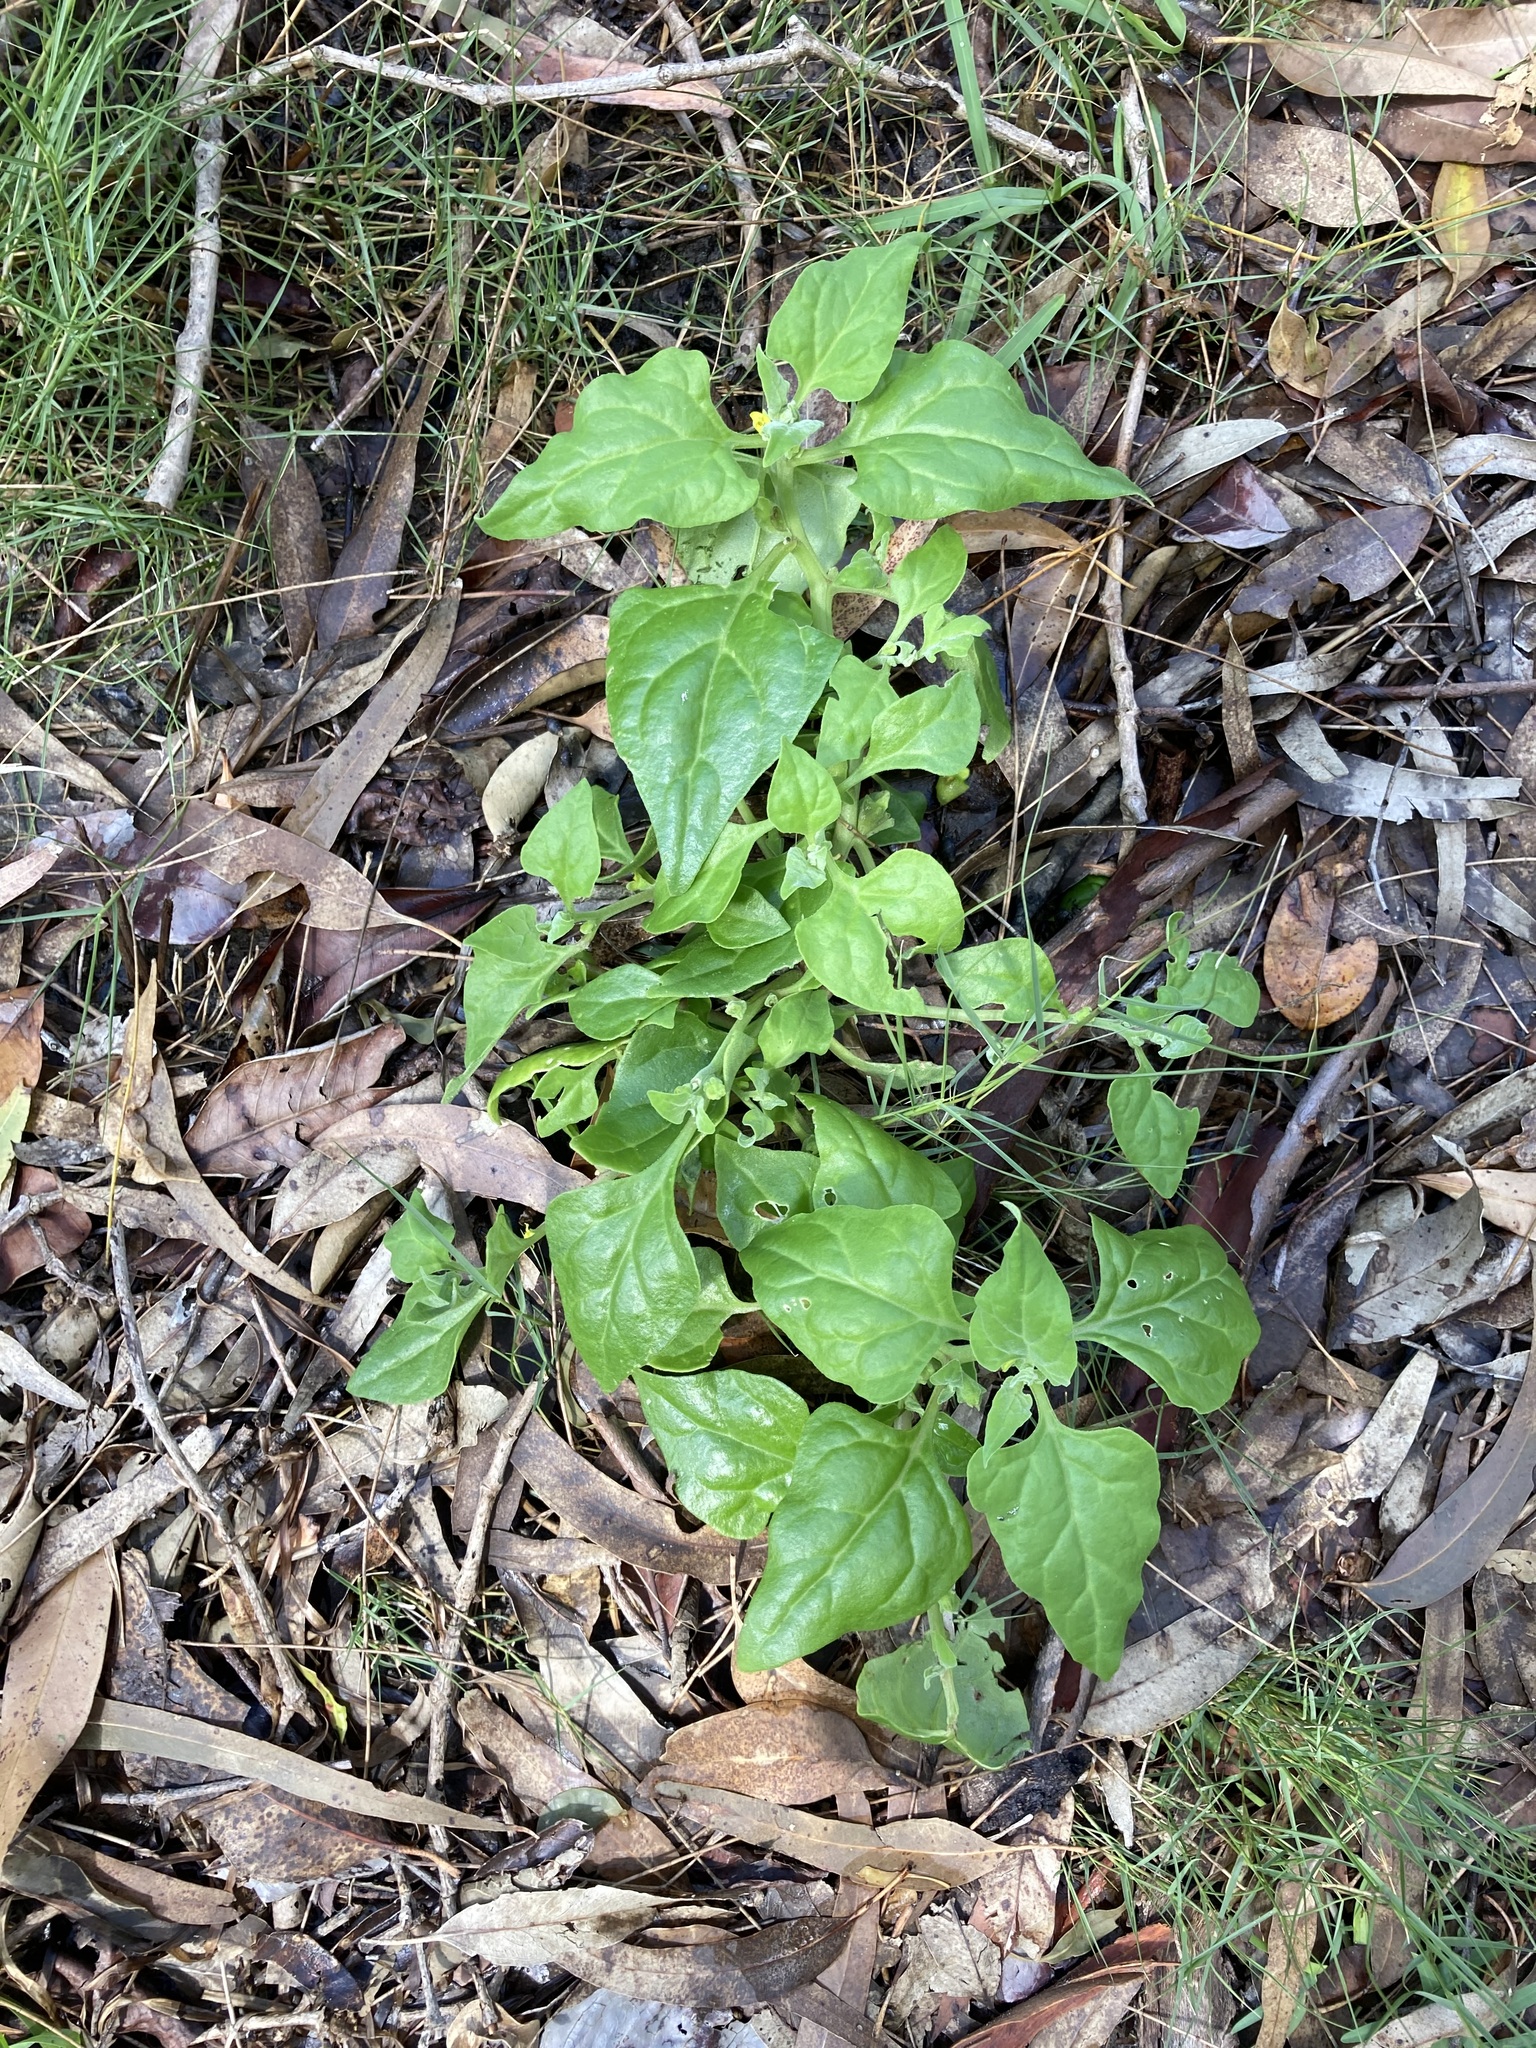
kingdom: Plantae
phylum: Tracheophyta
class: Magnoliopsida
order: Caryophyllales
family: Aizoaceae
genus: Tetragonia
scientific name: Tetragonia tetragonoides
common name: New zealand-spinach
